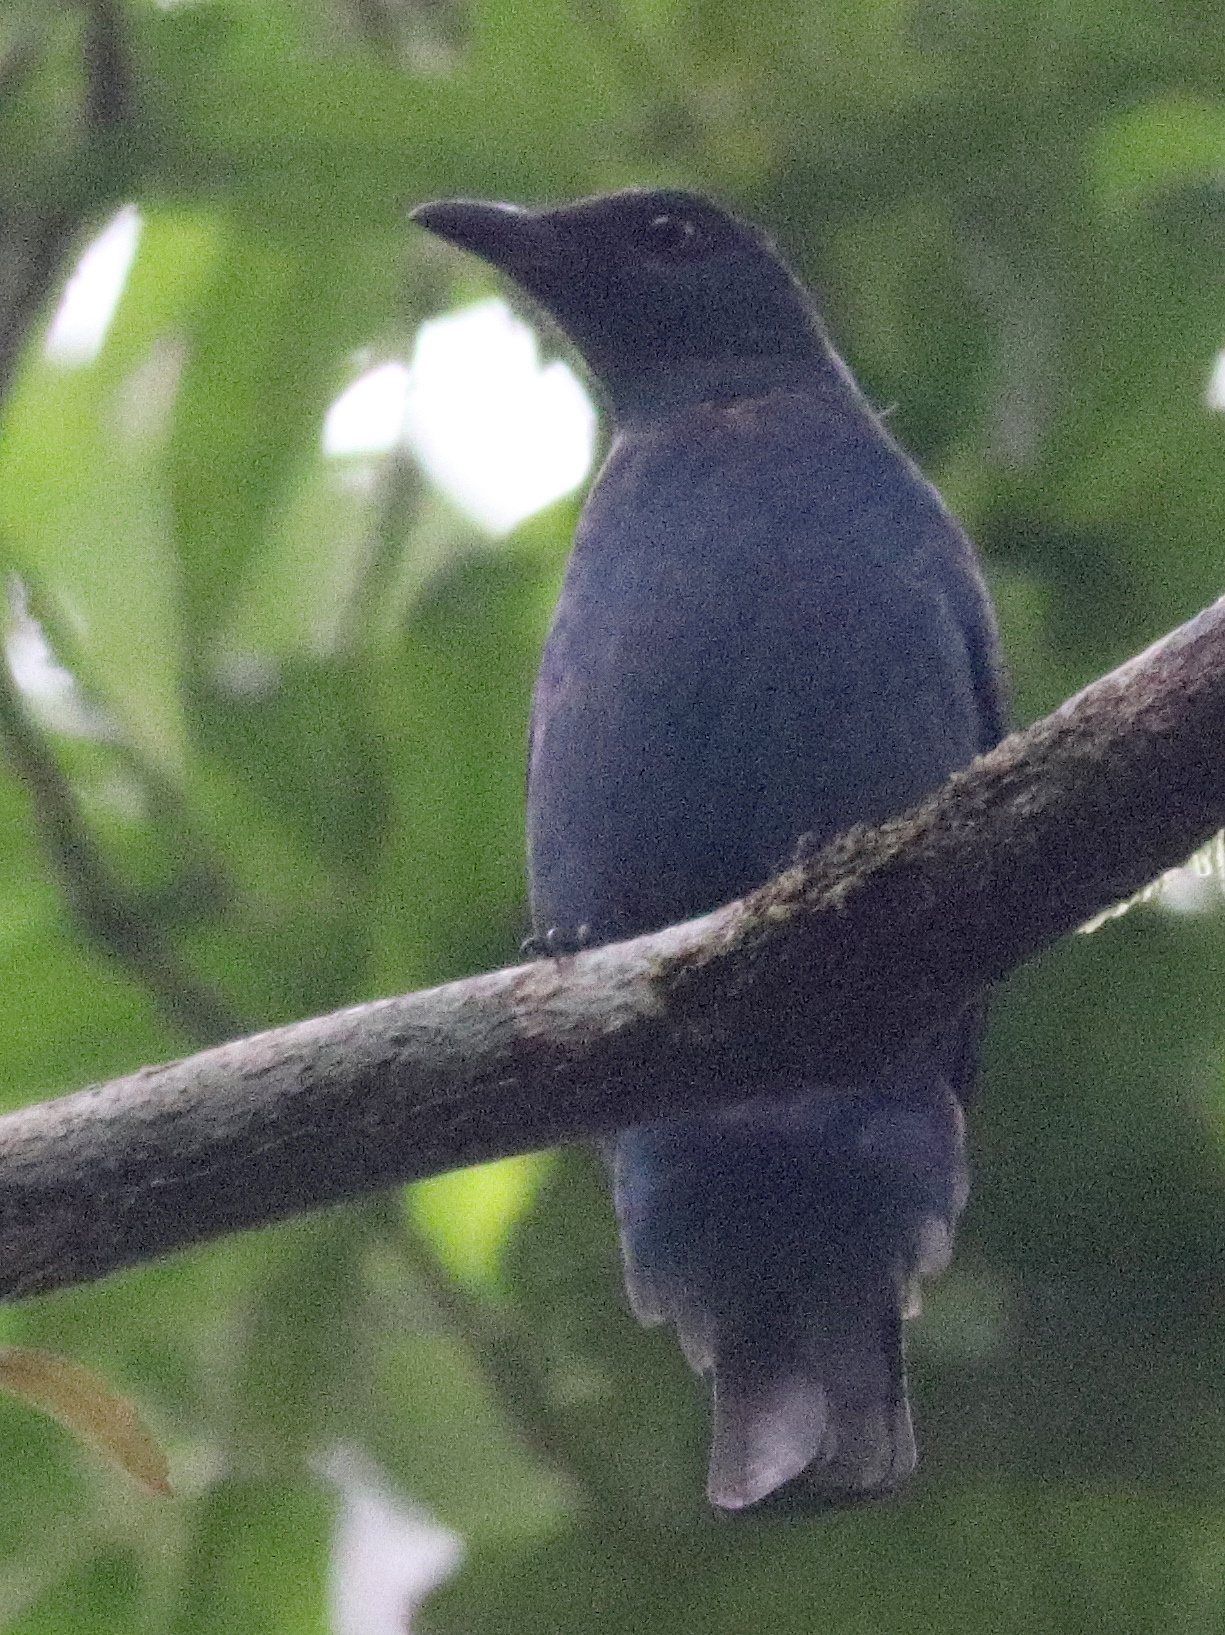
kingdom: Animalia
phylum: Chordata
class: Aves
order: Passeriformes
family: Irenidae
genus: Irena
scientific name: Irena puella
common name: Asian fairy-bluebird
